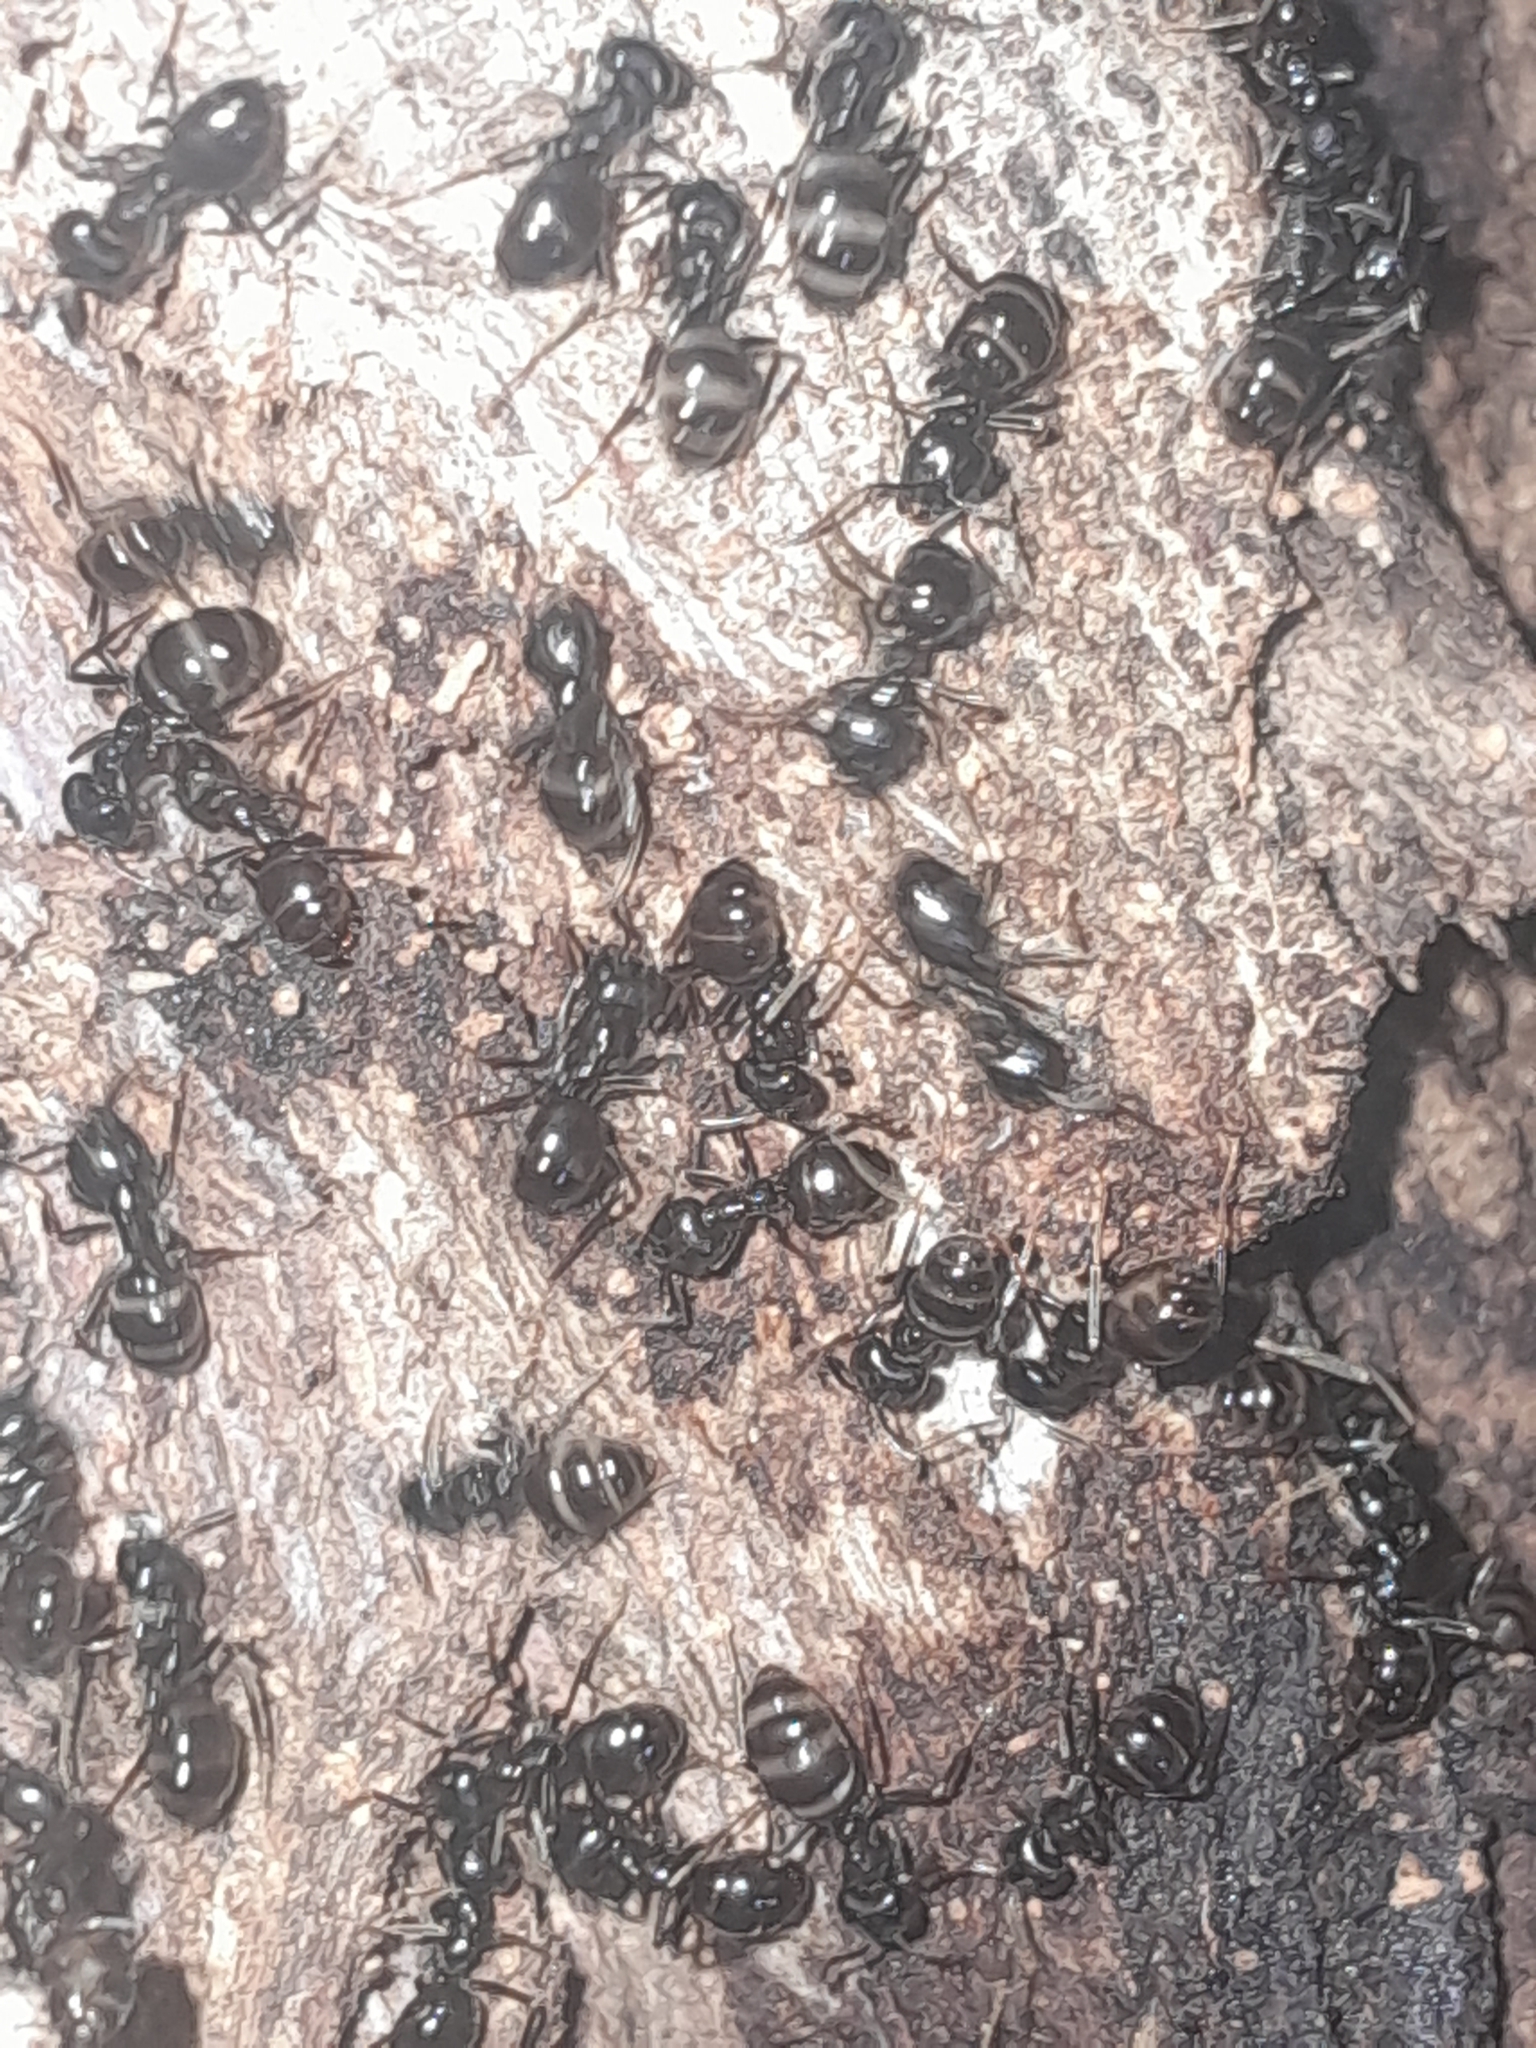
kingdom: Animalia
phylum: Arthropoda
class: Insecta
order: Hymenoptera
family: Formicidae
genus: Lasius
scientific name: Lasius fuliginosus
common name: Jet ant
